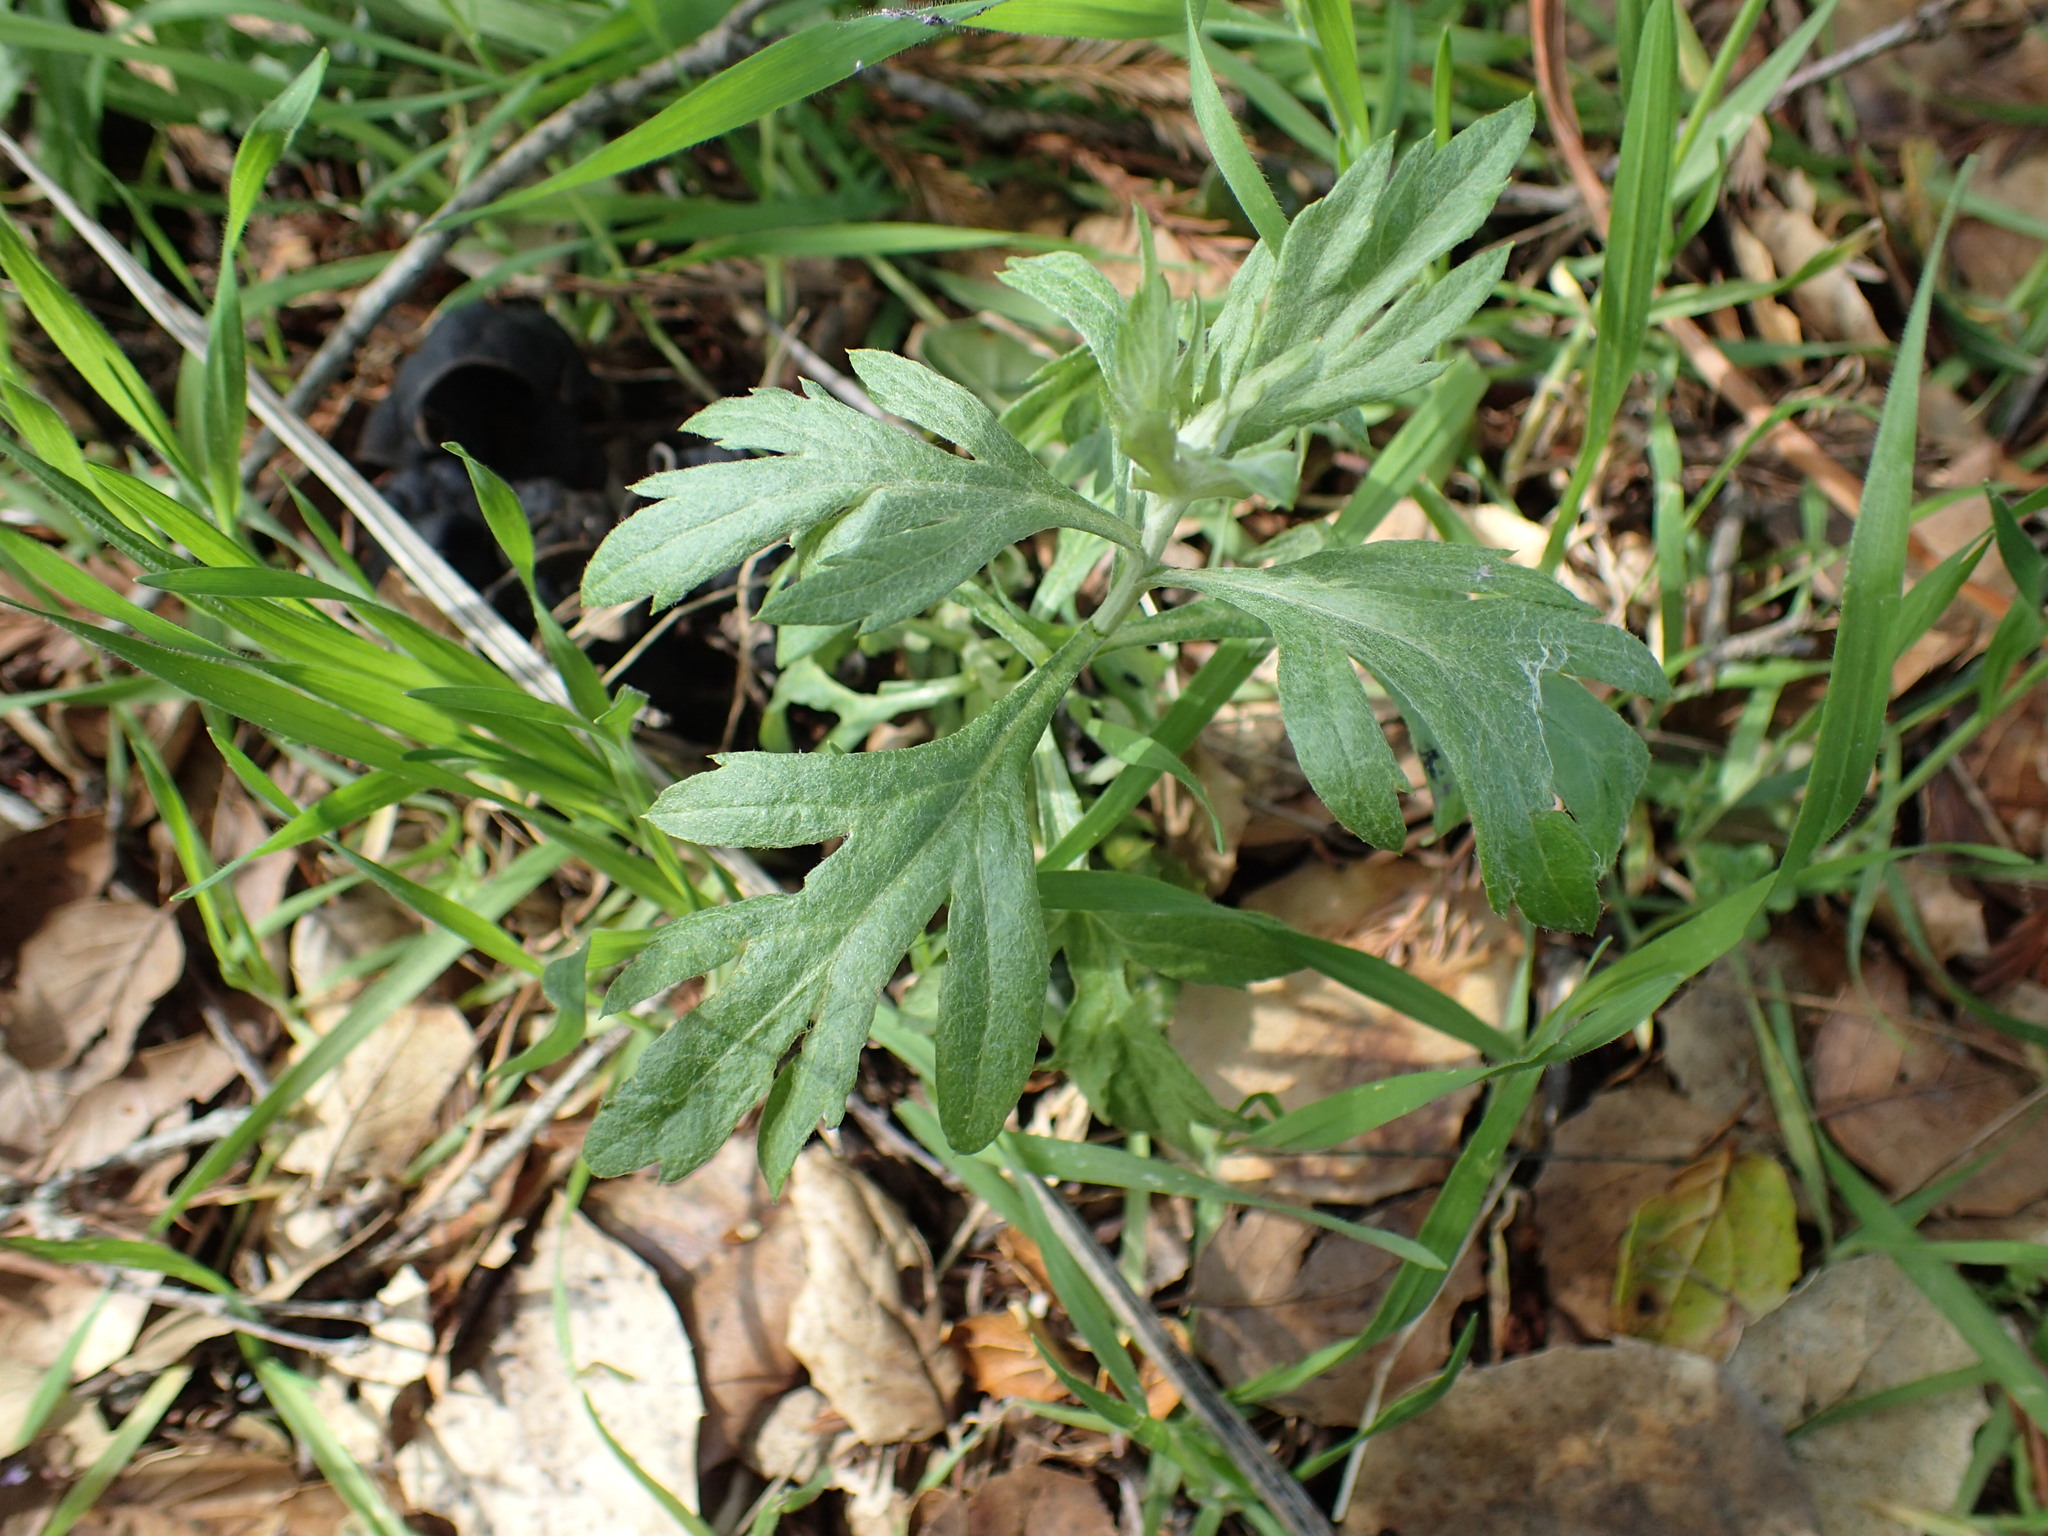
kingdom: Plantae
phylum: Tracheophyta
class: Magnoliopsida
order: Asterales
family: Asteraceae
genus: Artemisia
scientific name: Artemisia douglasiana
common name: Northwest mugwort
